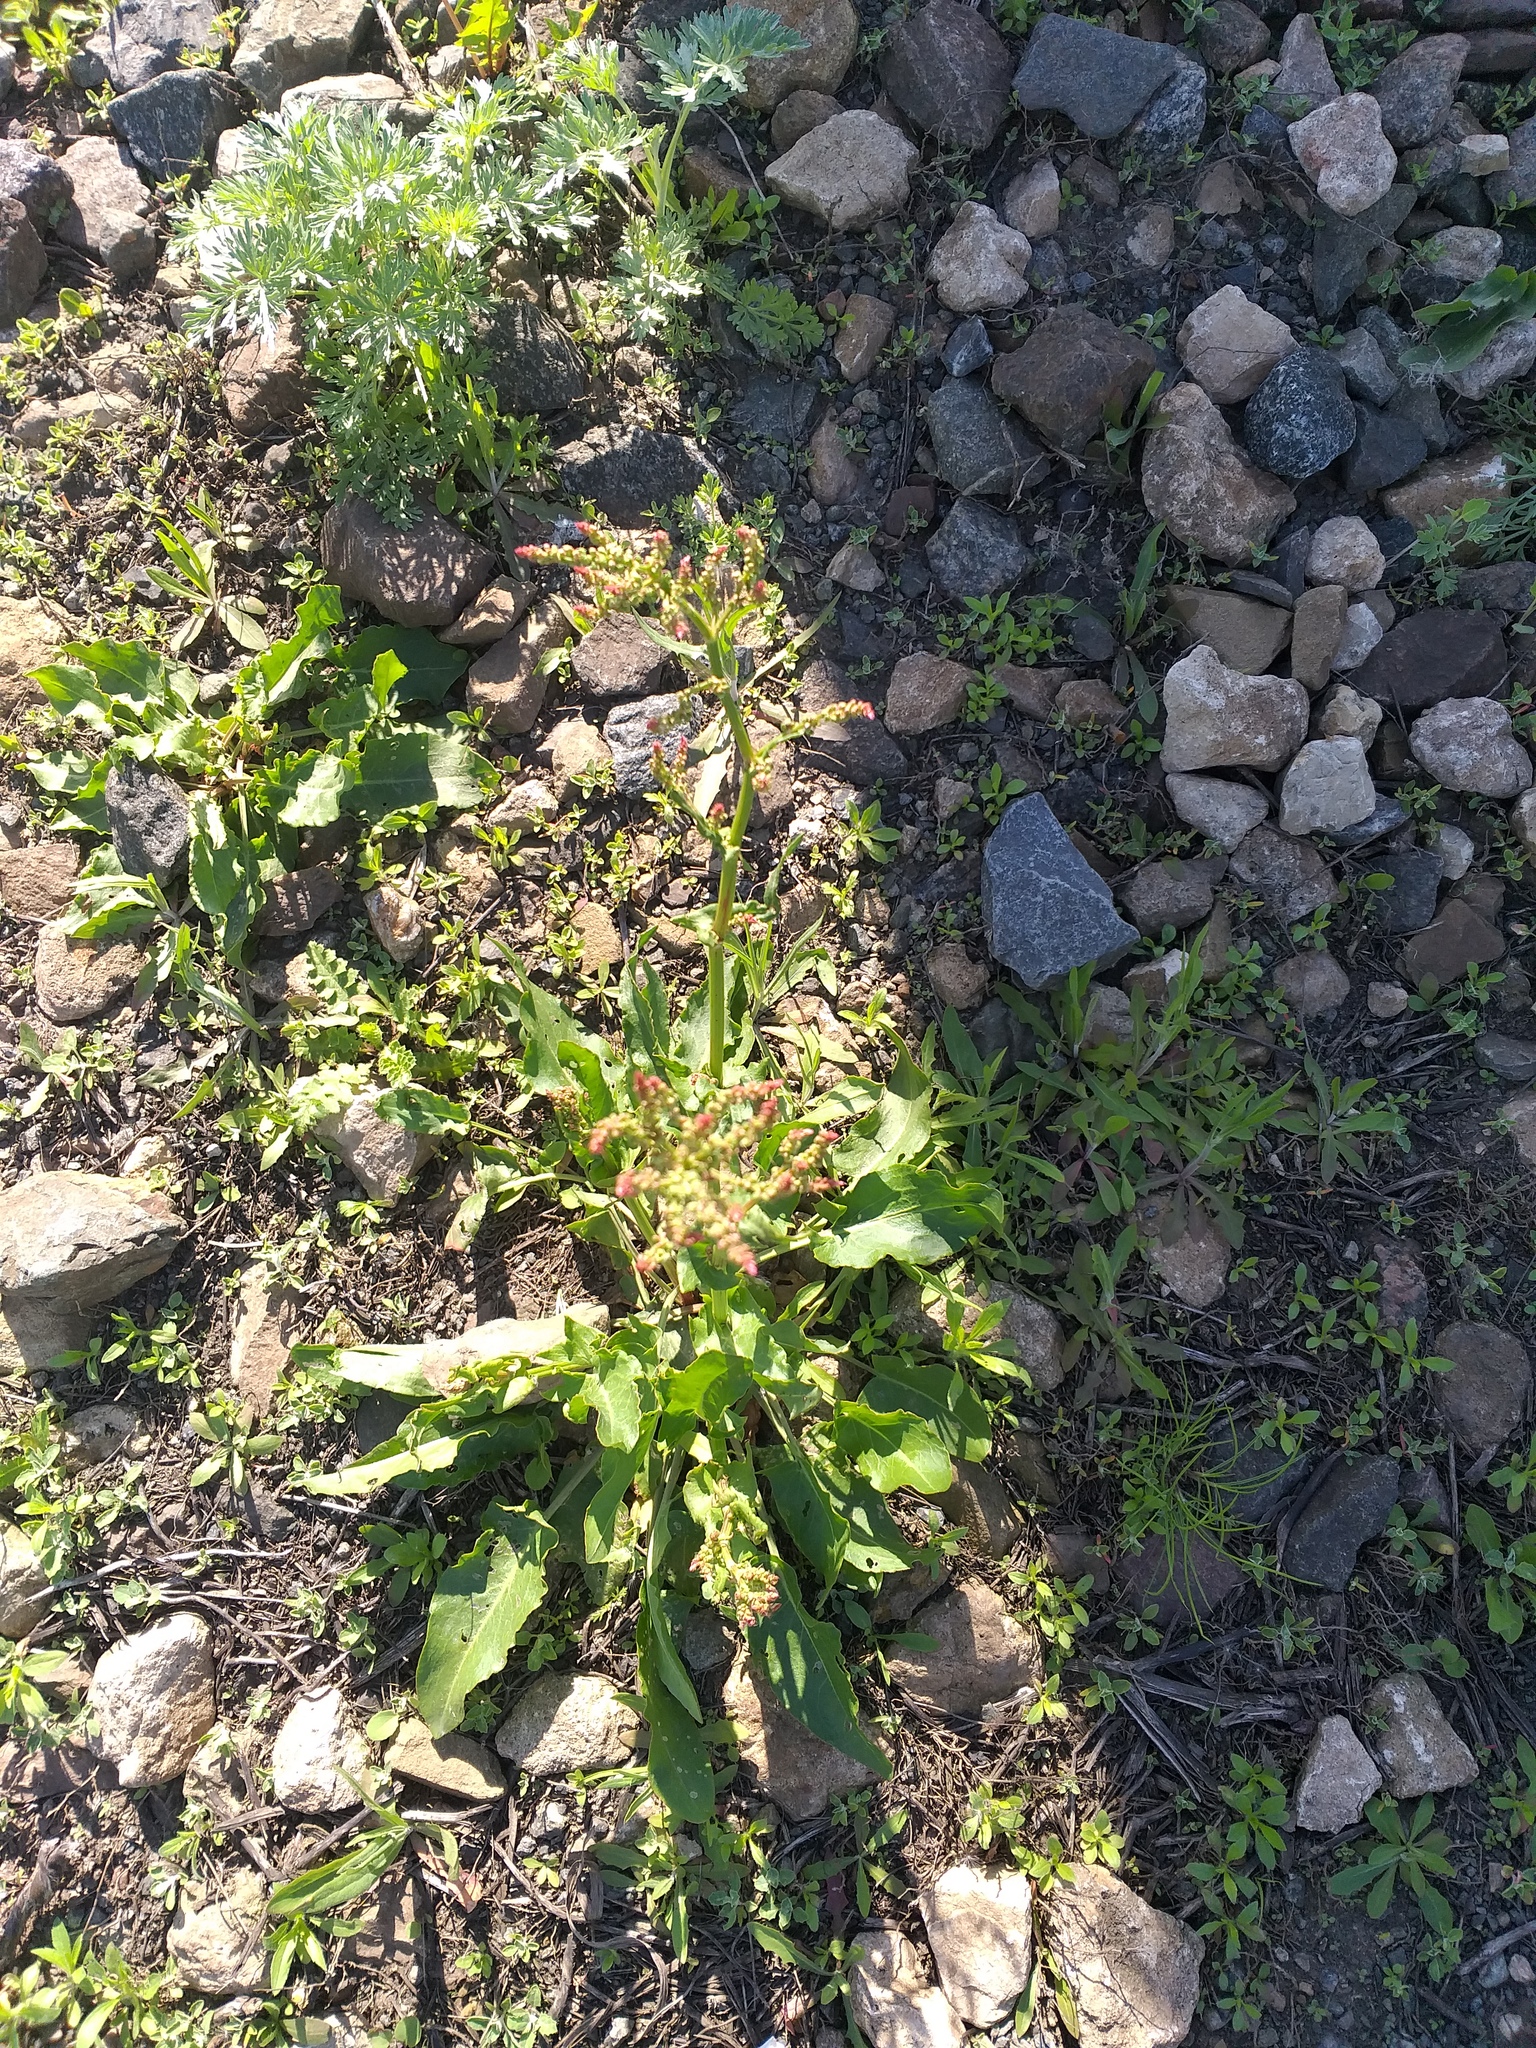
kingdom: Plantae
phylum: Tracheophyta
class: Magnoliopsida
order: Caryophyllales
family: Polygonaceae
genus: Rumex
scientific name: Rumex thyrsiflorus
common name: Garden sorrel
